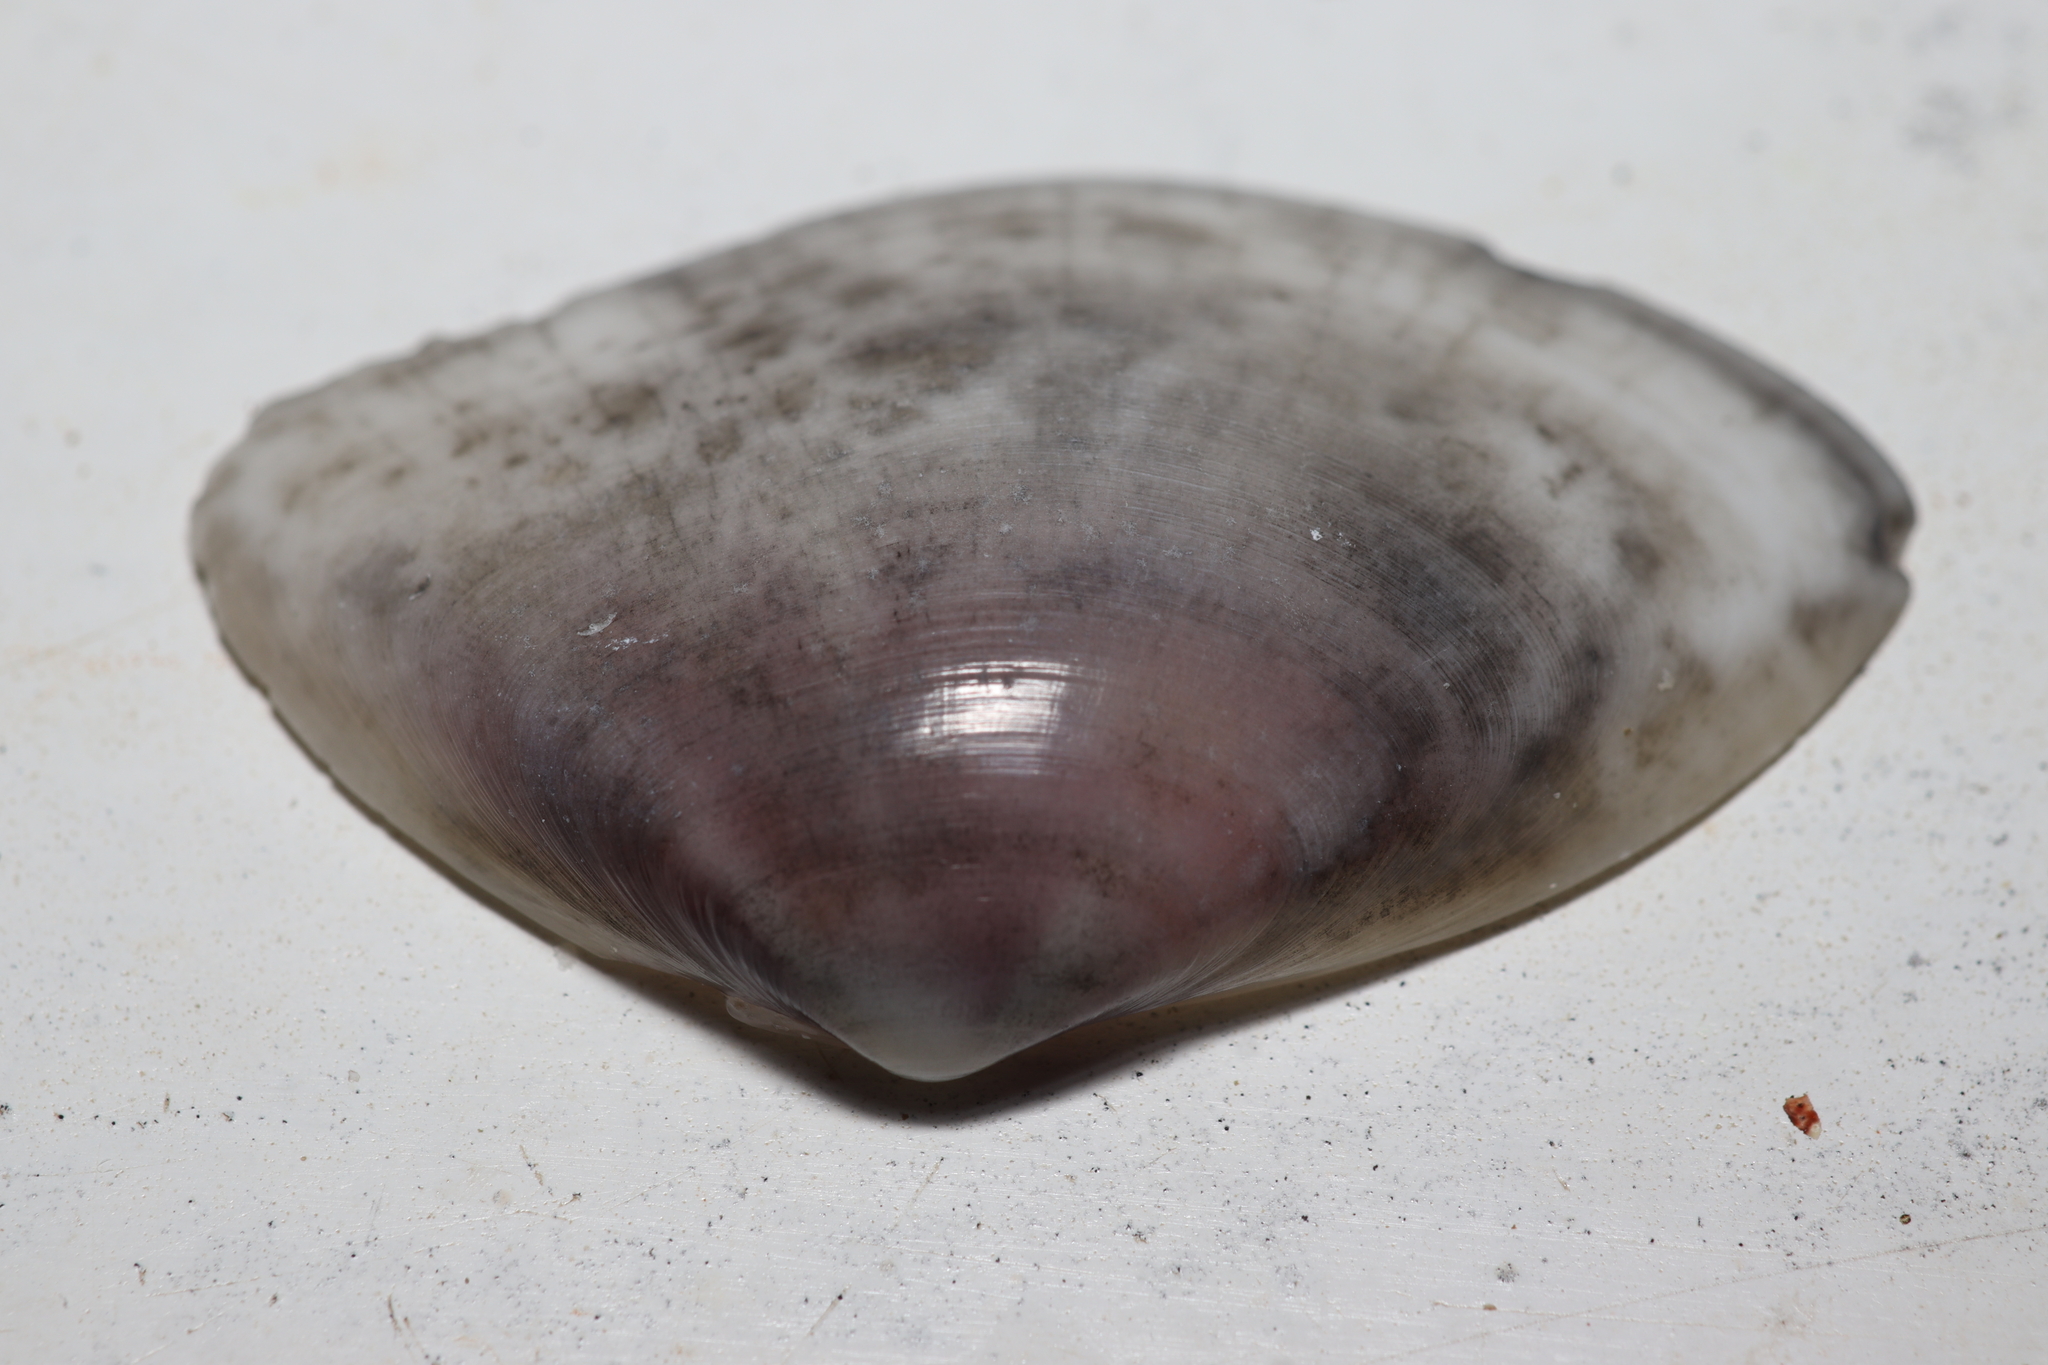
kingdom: Animalia
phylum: Mollusca
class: Bivalvia
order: Cardiida
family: Donacidae
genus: Iphigenia
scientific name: Iphigenia brasiliensis
